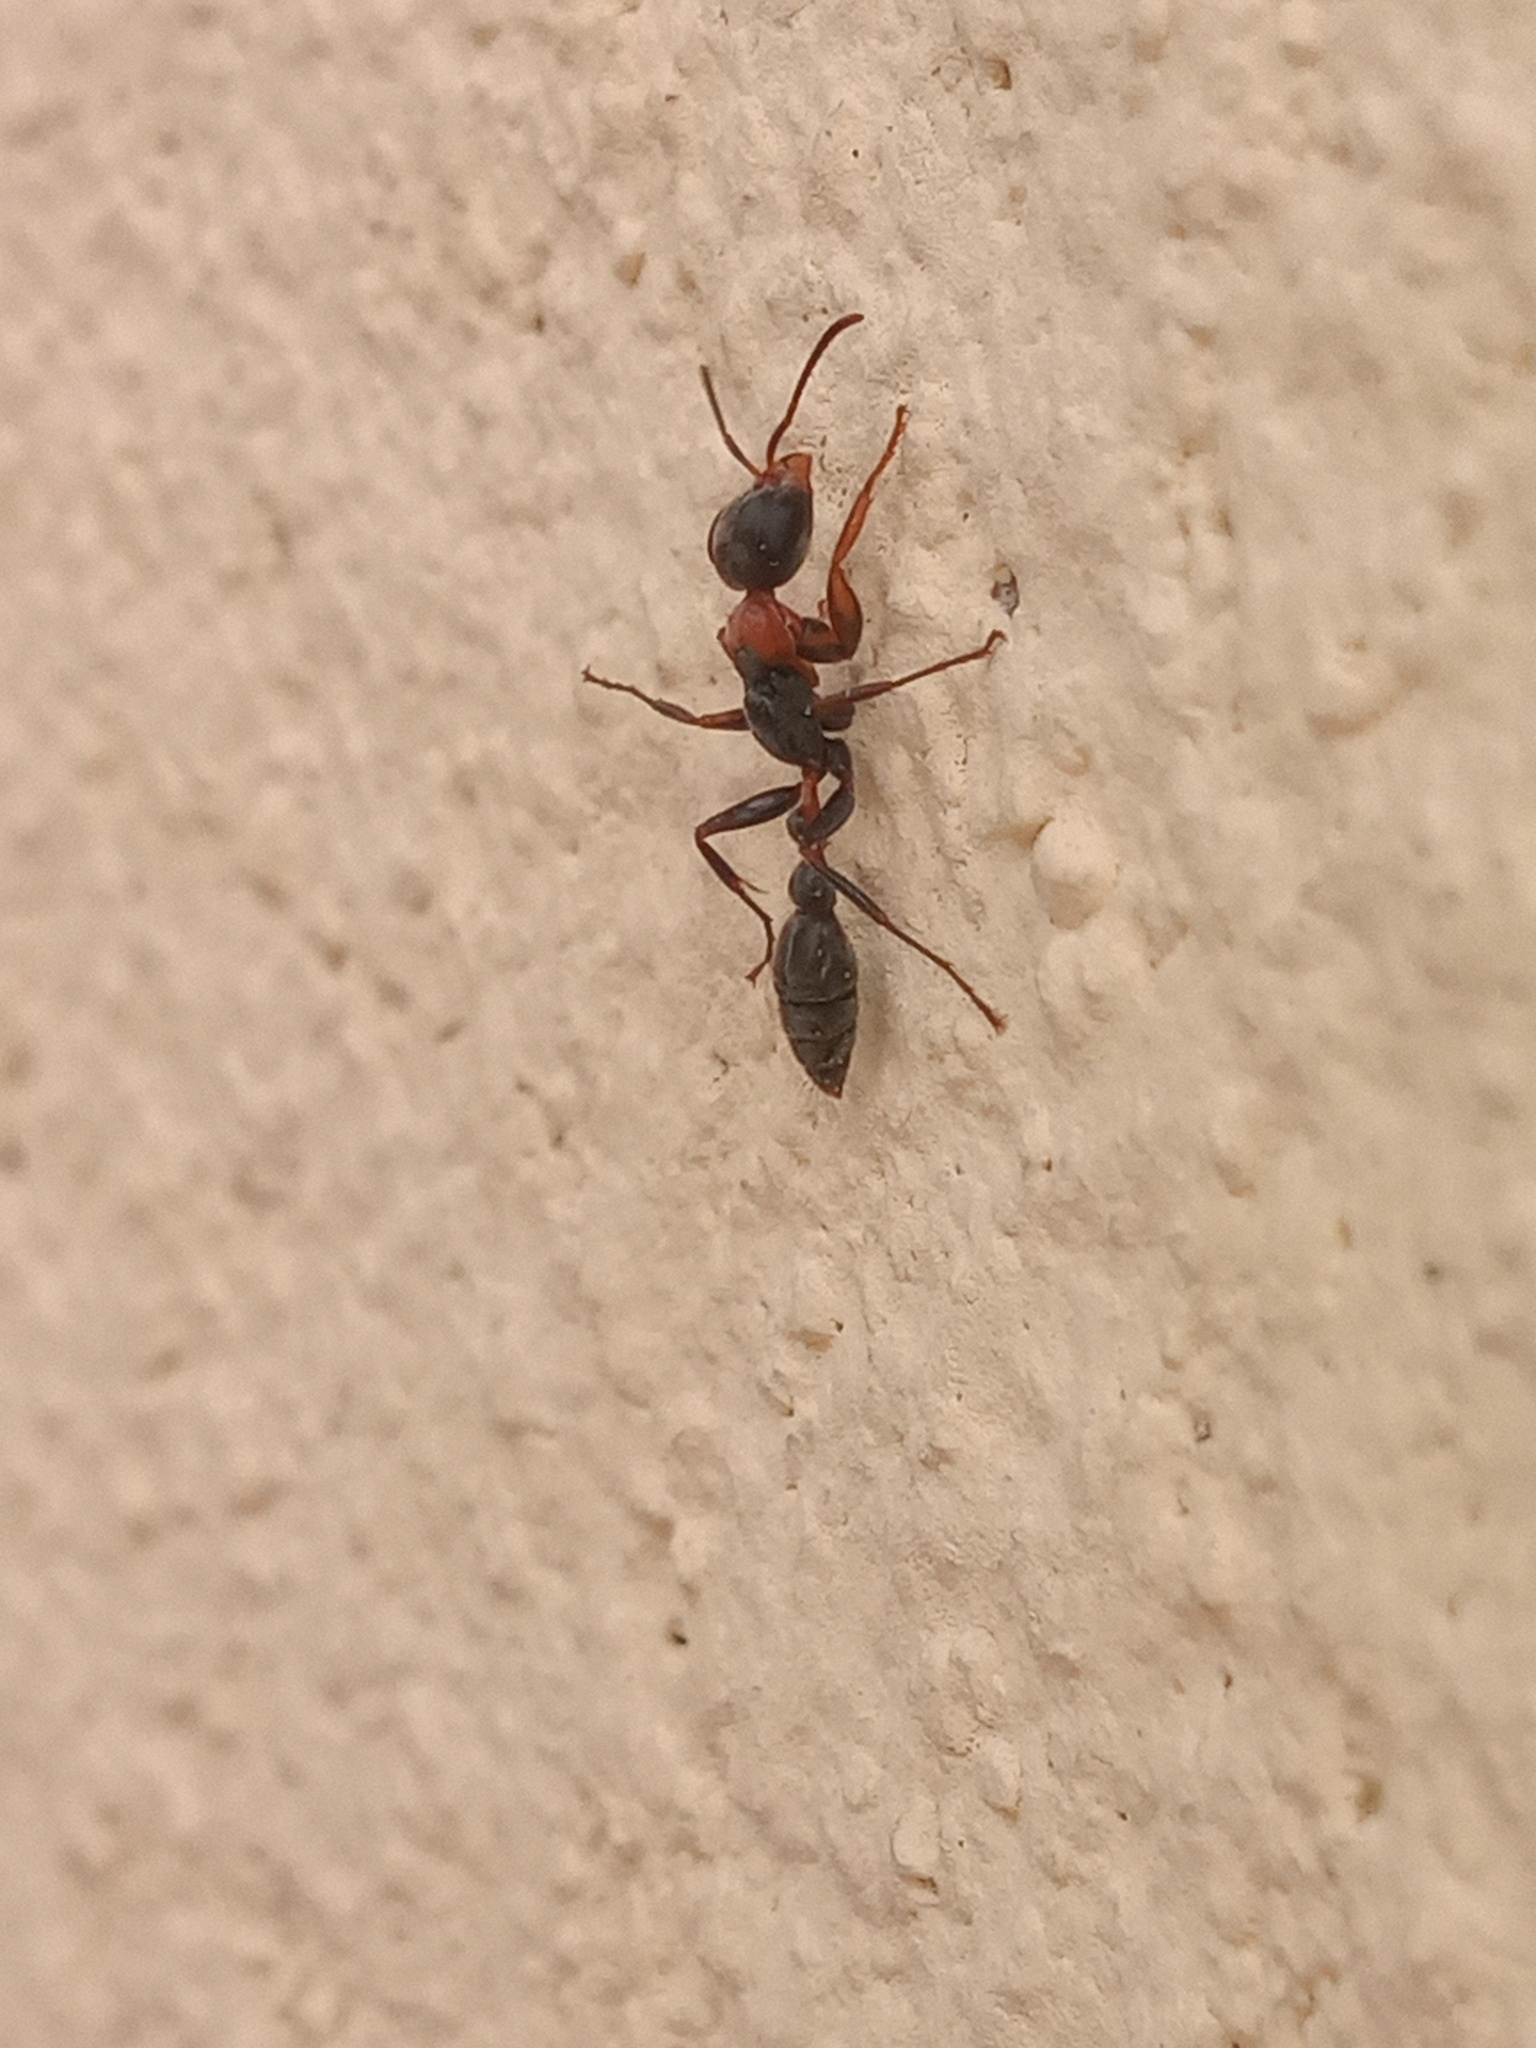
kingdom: Animalia
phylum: Arthropoda
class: Insecta
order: Hymenoptera
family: Formicidae
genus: Pseudomyrmex
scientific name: Pseudomyrmex gracilis
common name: Graceful twig ant
